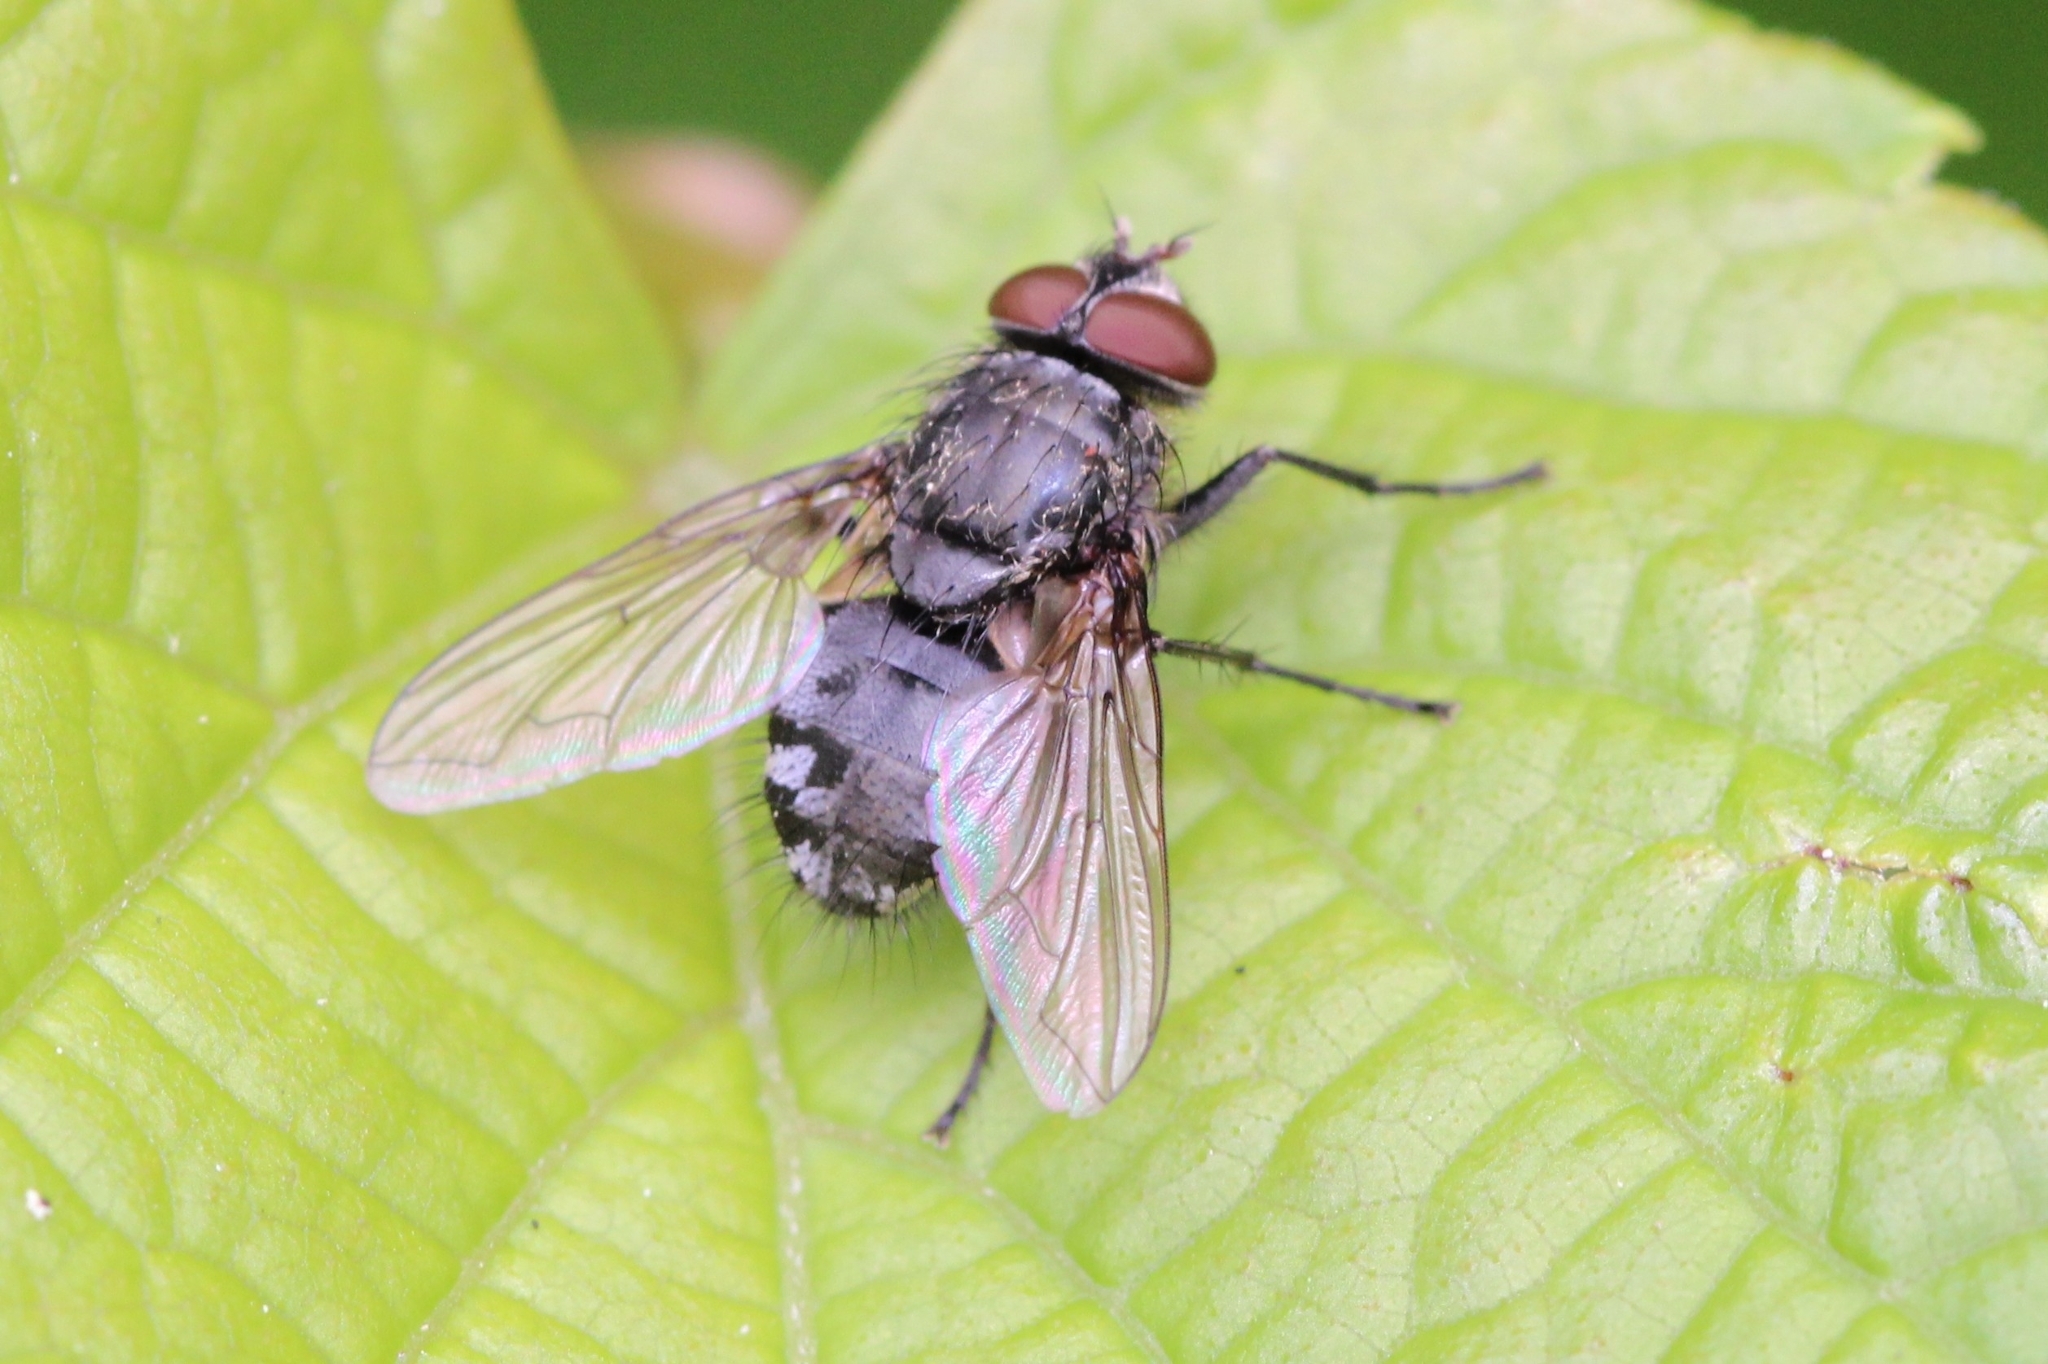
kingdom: Animalia
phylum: Arthropoda
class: Insecta
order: Diptera
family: Polleniidae
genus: Pollenia
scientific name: Pollenia
